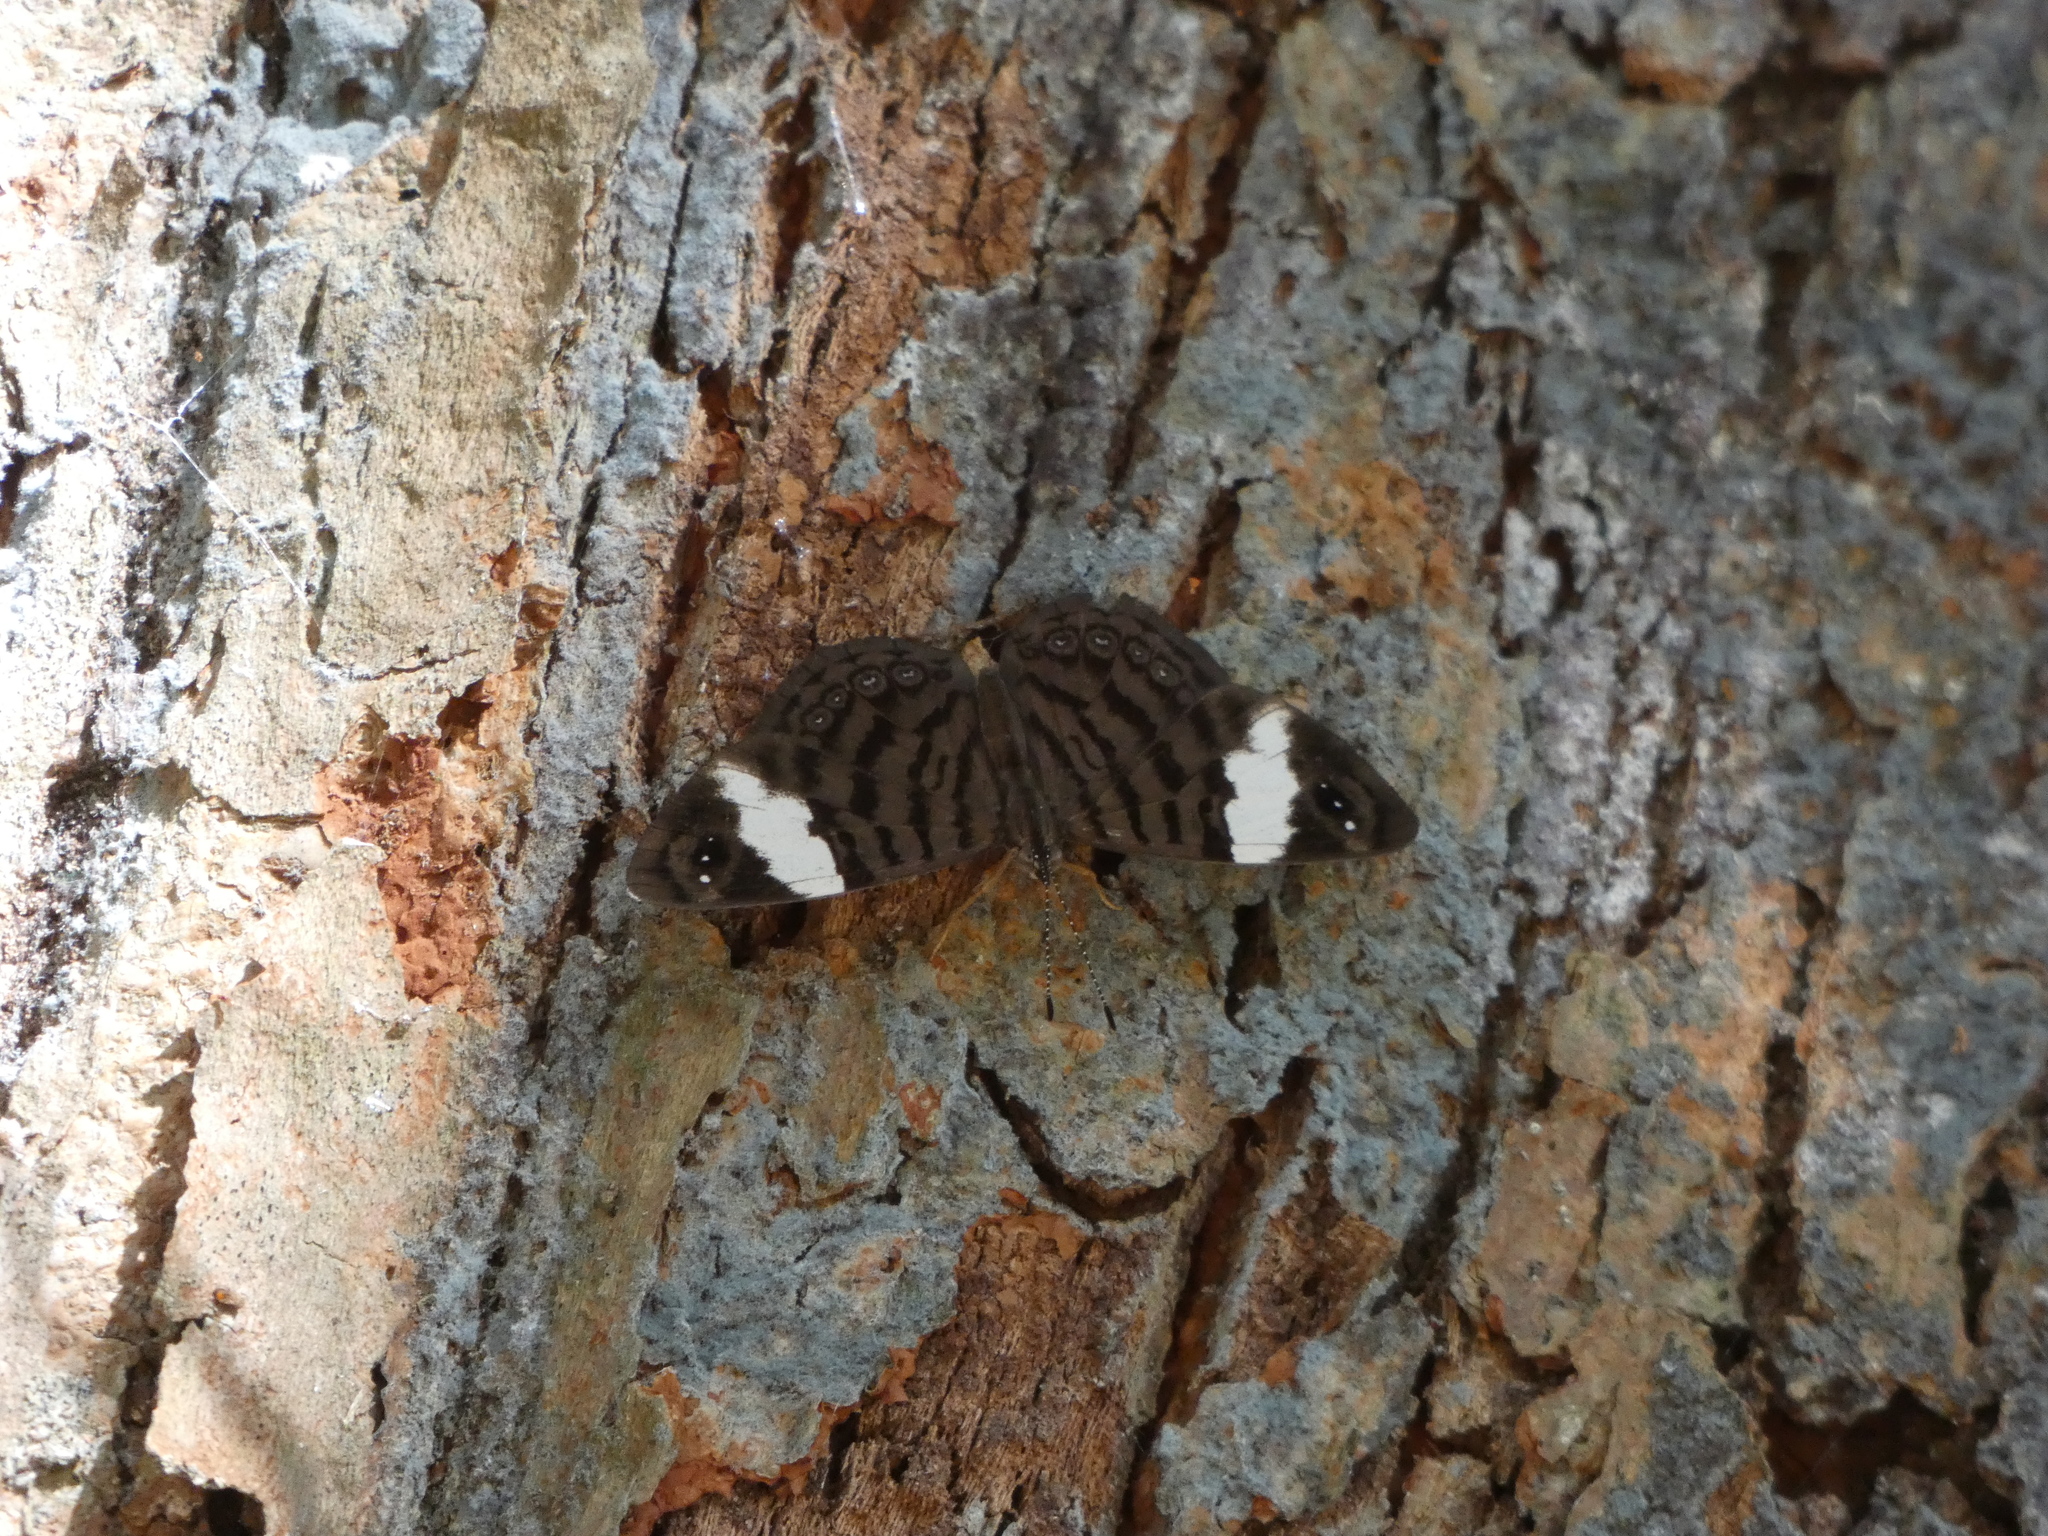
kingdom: Animalia
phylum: Arthropoda
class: Insecta
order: Lepidoptera
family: Nymphalidae
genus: Ectima
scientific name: Ectima thecla
